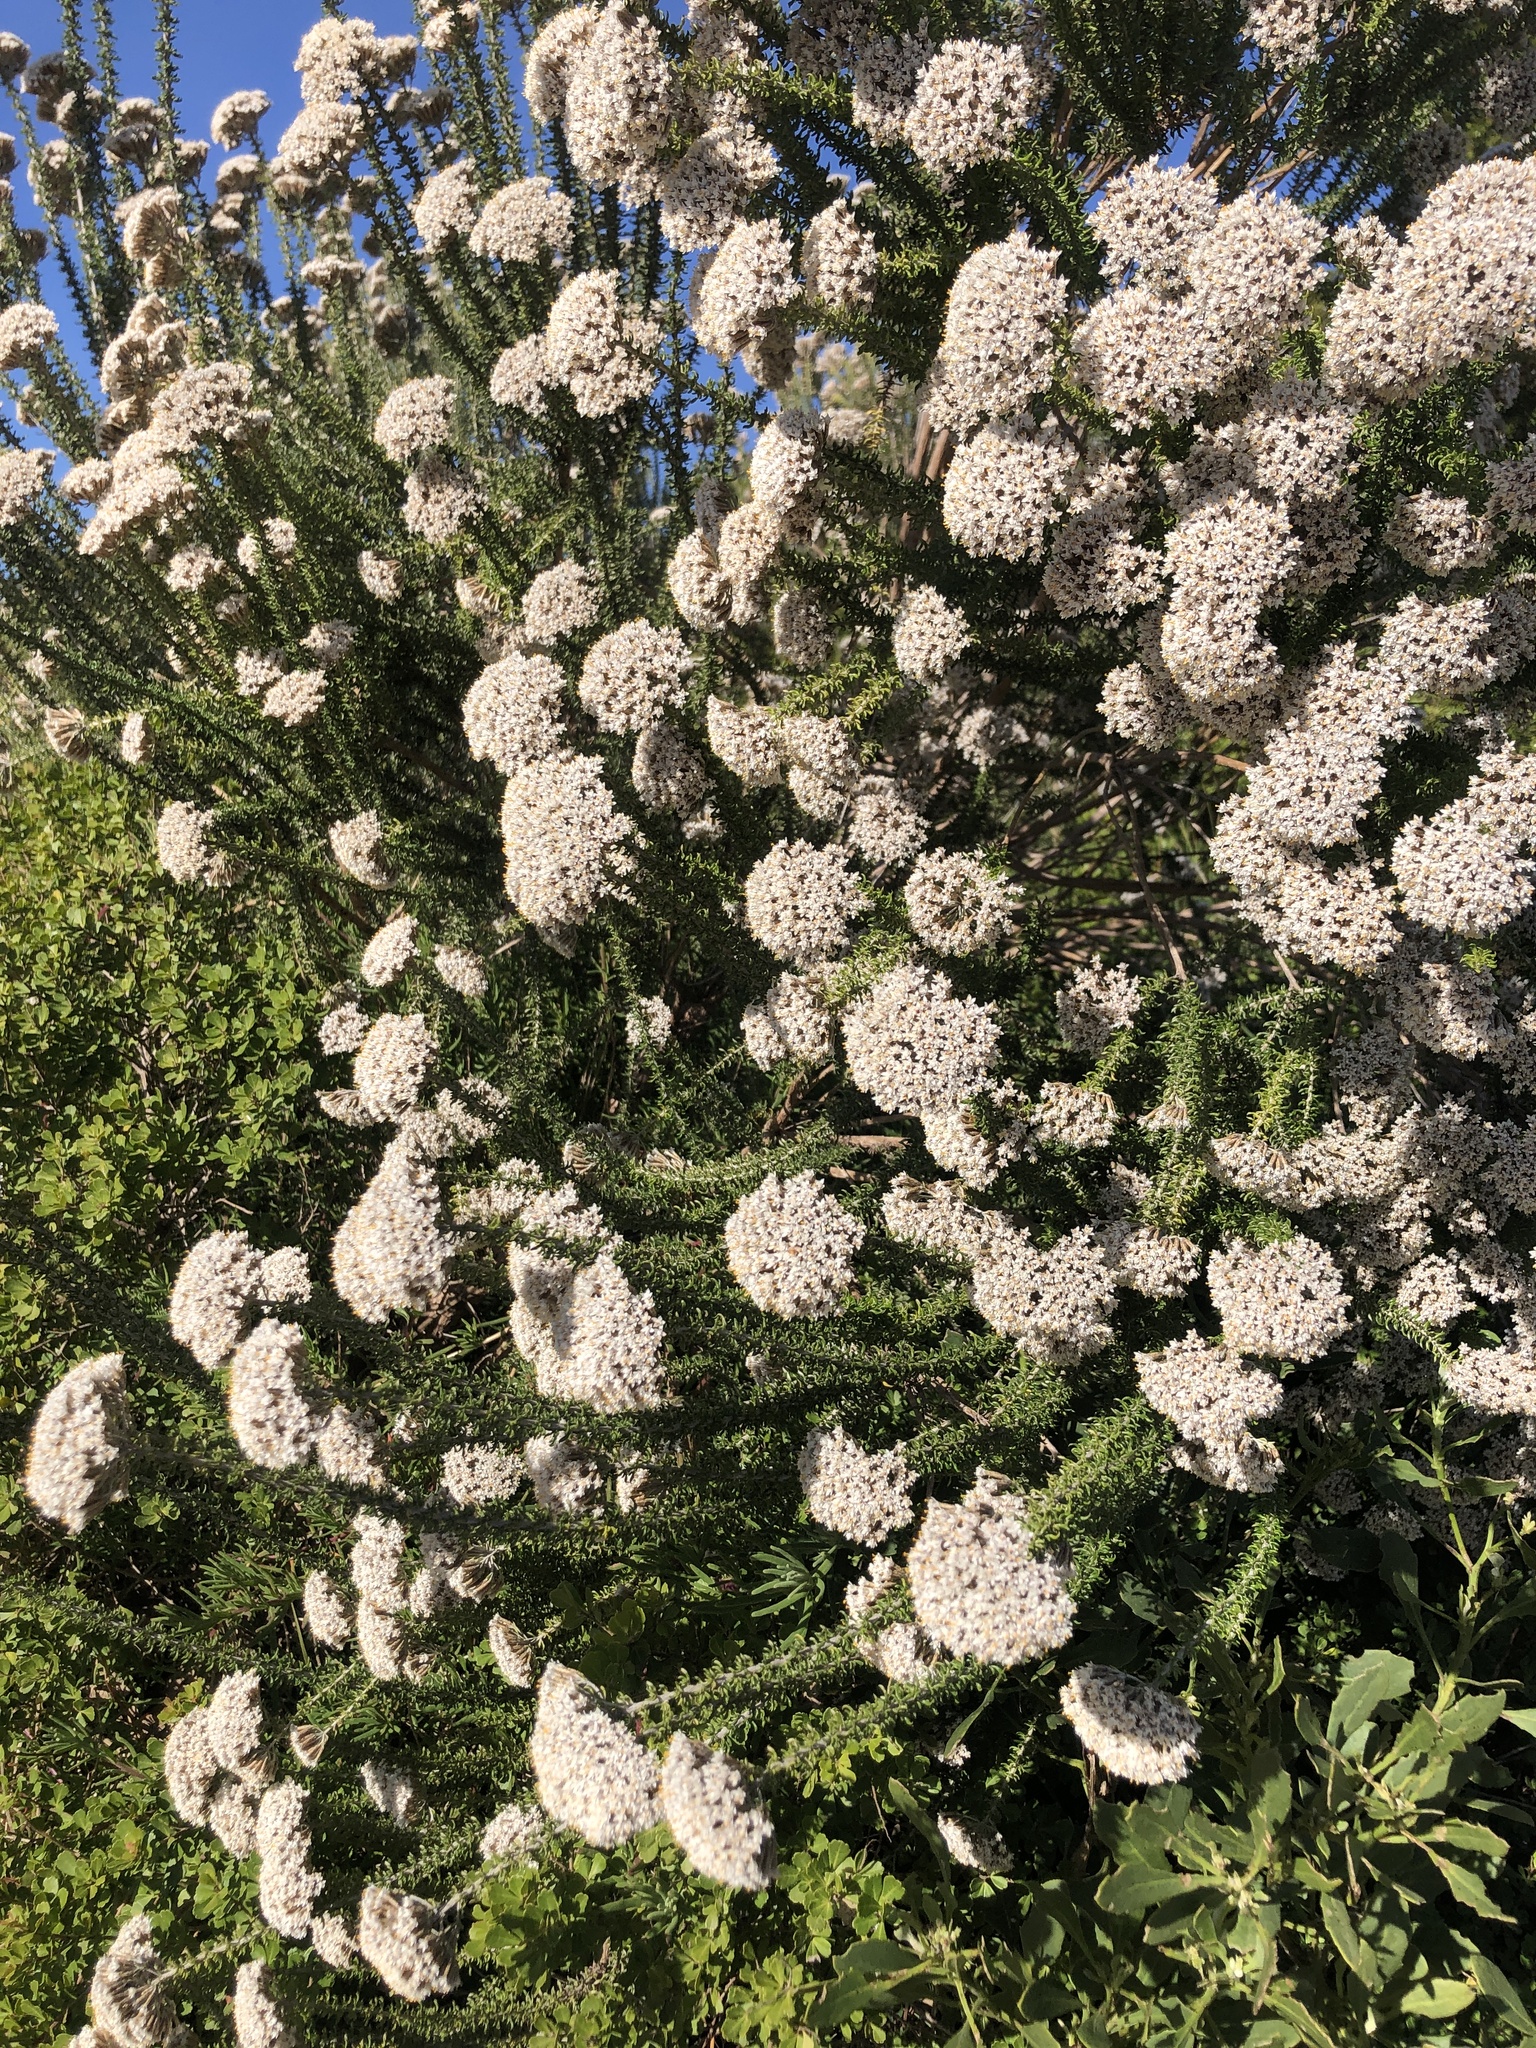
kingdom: Plantae
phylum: Tracheophyta
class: Magnoliopsida
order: Asterales
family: Asteraceae
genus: Metalasia
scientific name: Metalasia muricata
